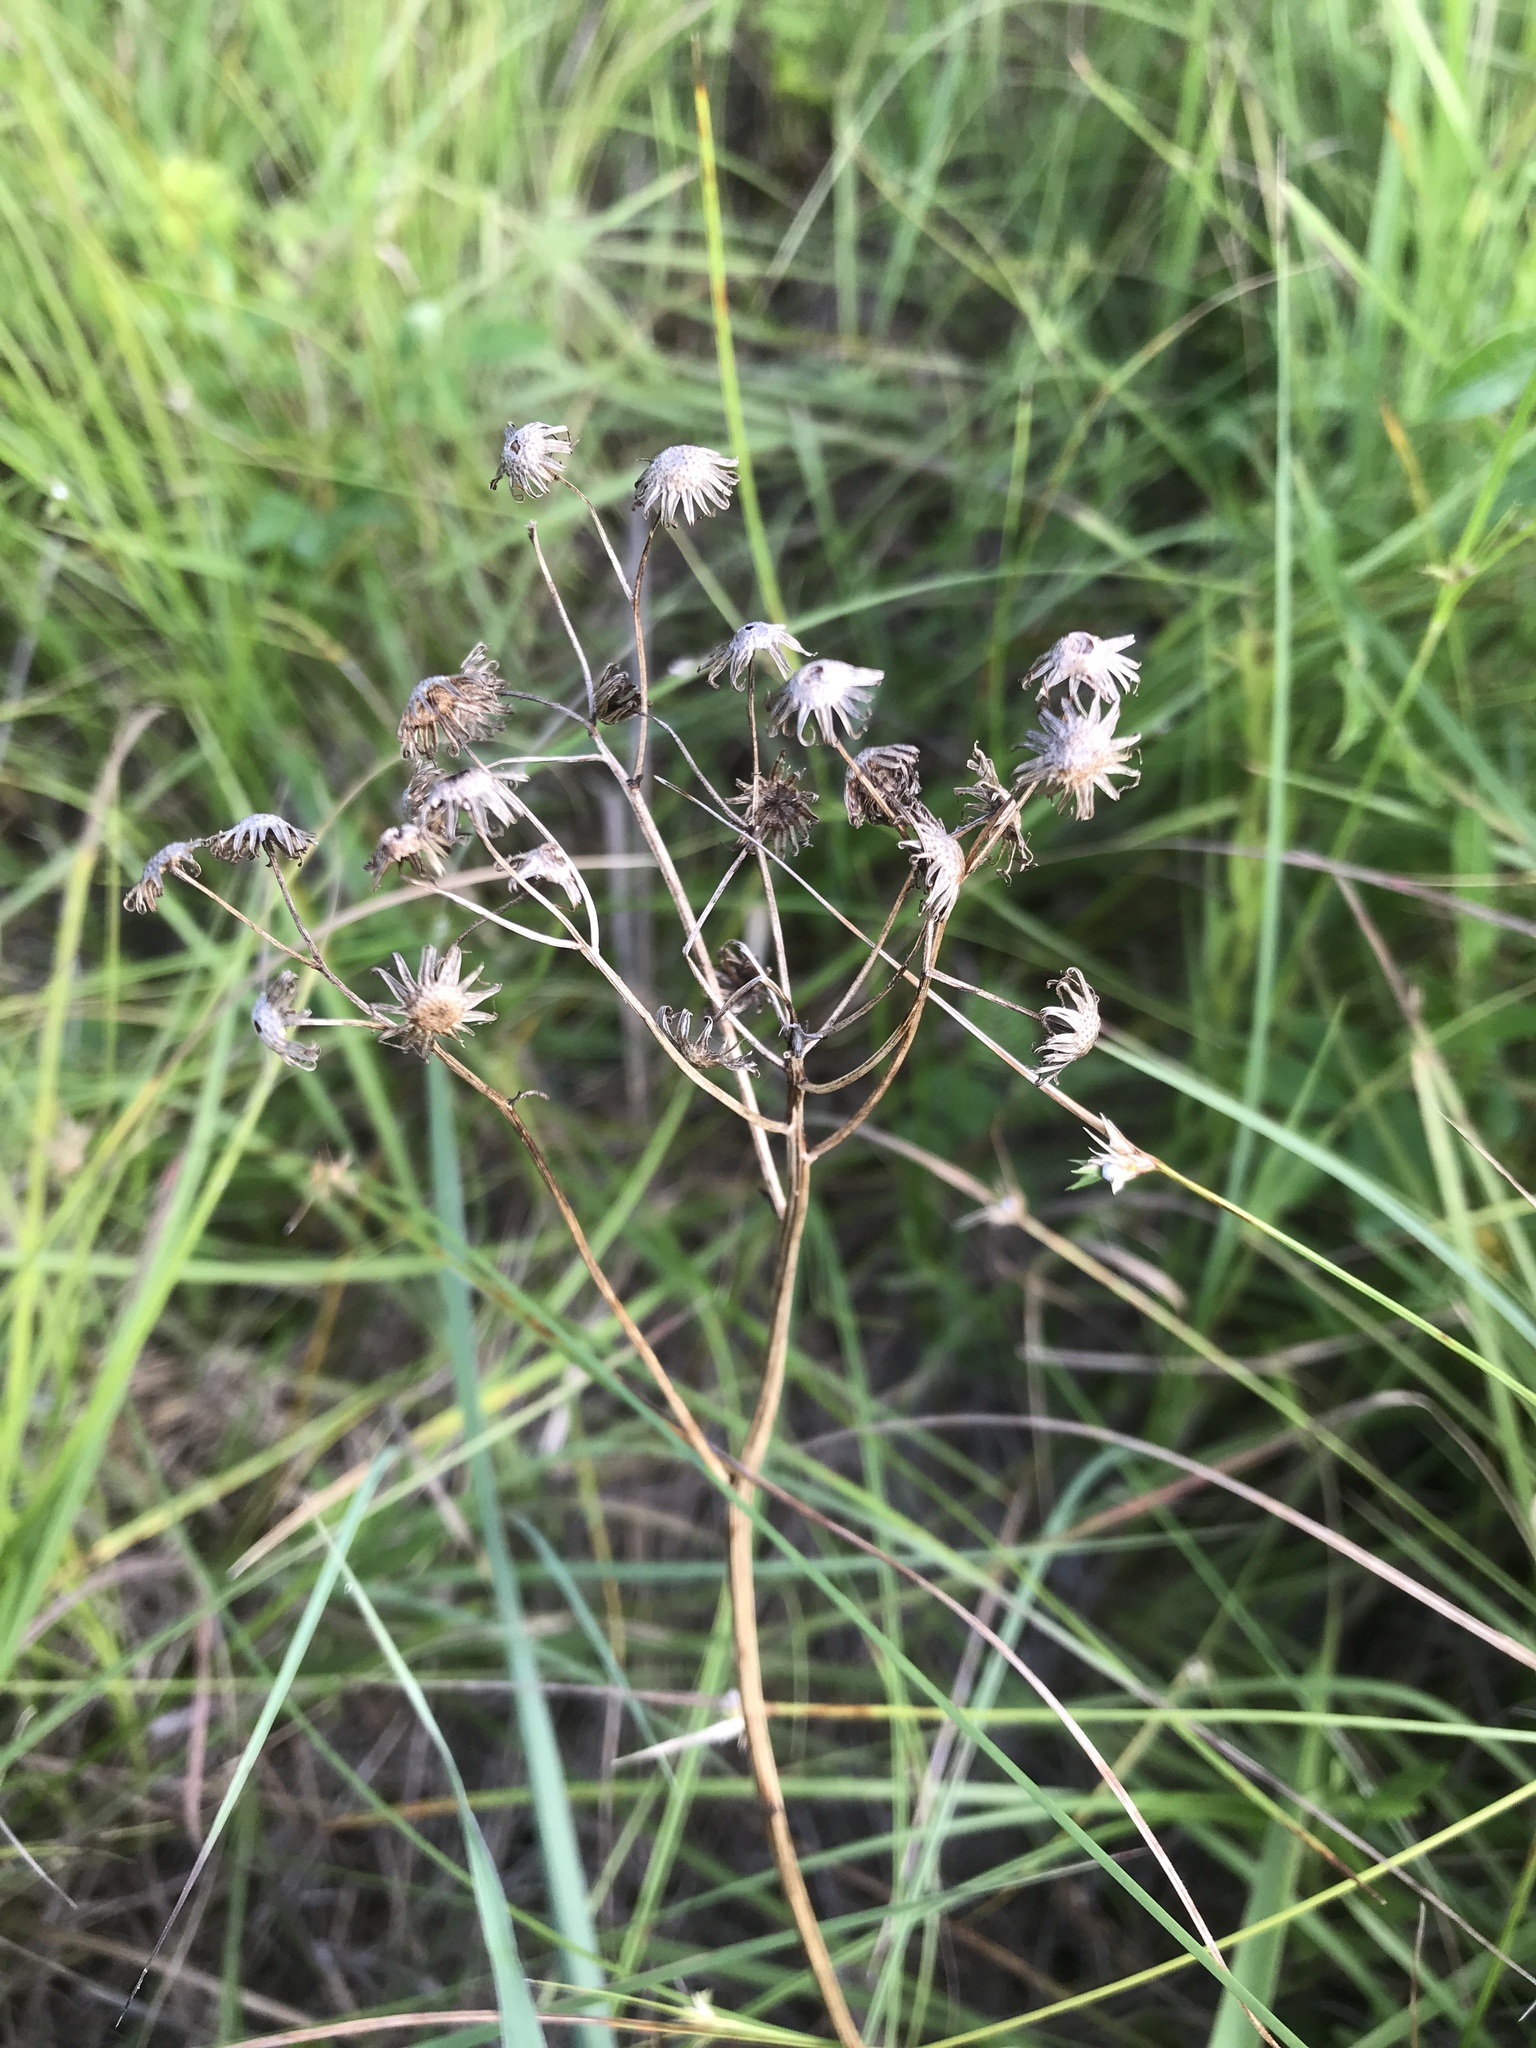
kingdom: Plantae
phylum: Tracheophyta
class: Magnoliopsida
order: Asterales
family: Asteraceae
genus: Packera
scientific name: Packera anonyma
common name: Small ragwort
